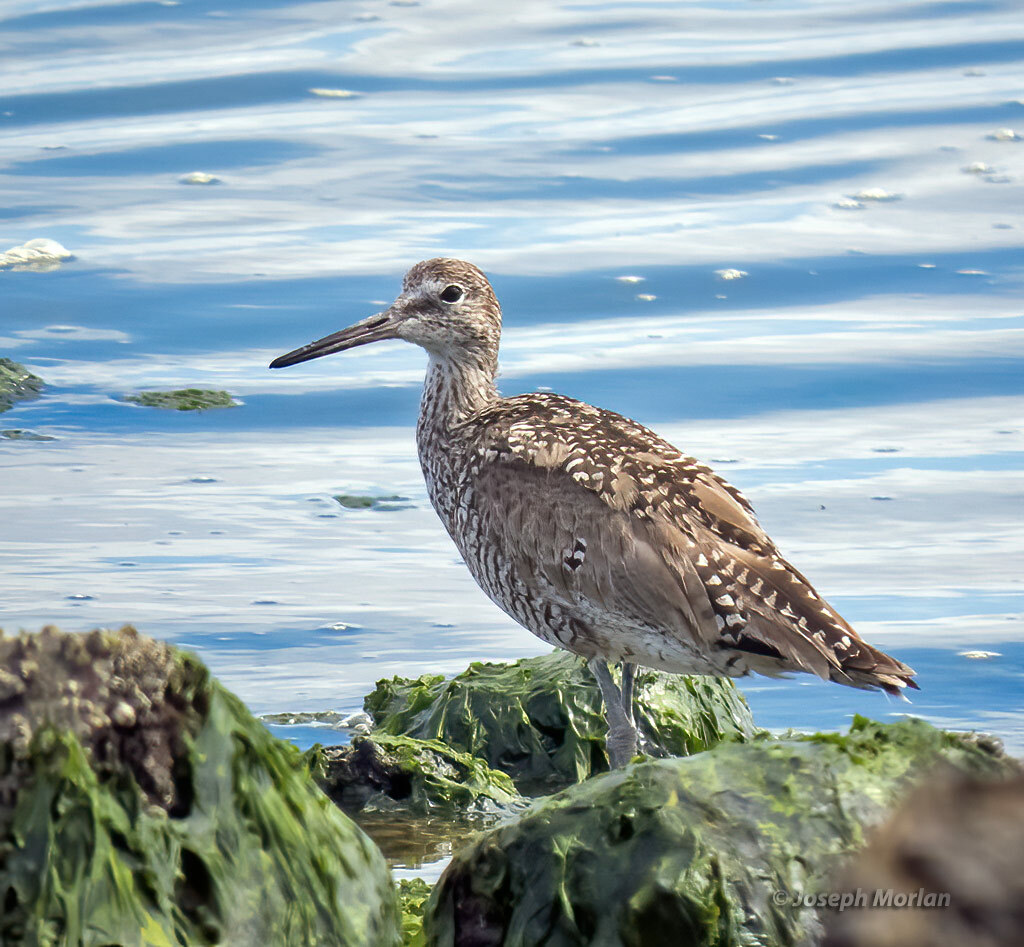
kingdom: Animalia
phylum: Chordata
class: Aves
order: Charadriiformes
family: Scolopacidae
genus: Tringa
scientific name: Tringa semipalmata
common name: Willet
